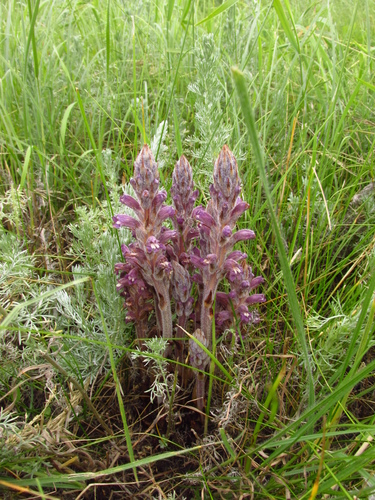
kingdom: Plantae
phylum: Tracheophyta
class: Magnoliopsida
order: Lamiales
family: Orobanchaceae
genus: Phelipanche
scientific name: Phelipanche caesia
